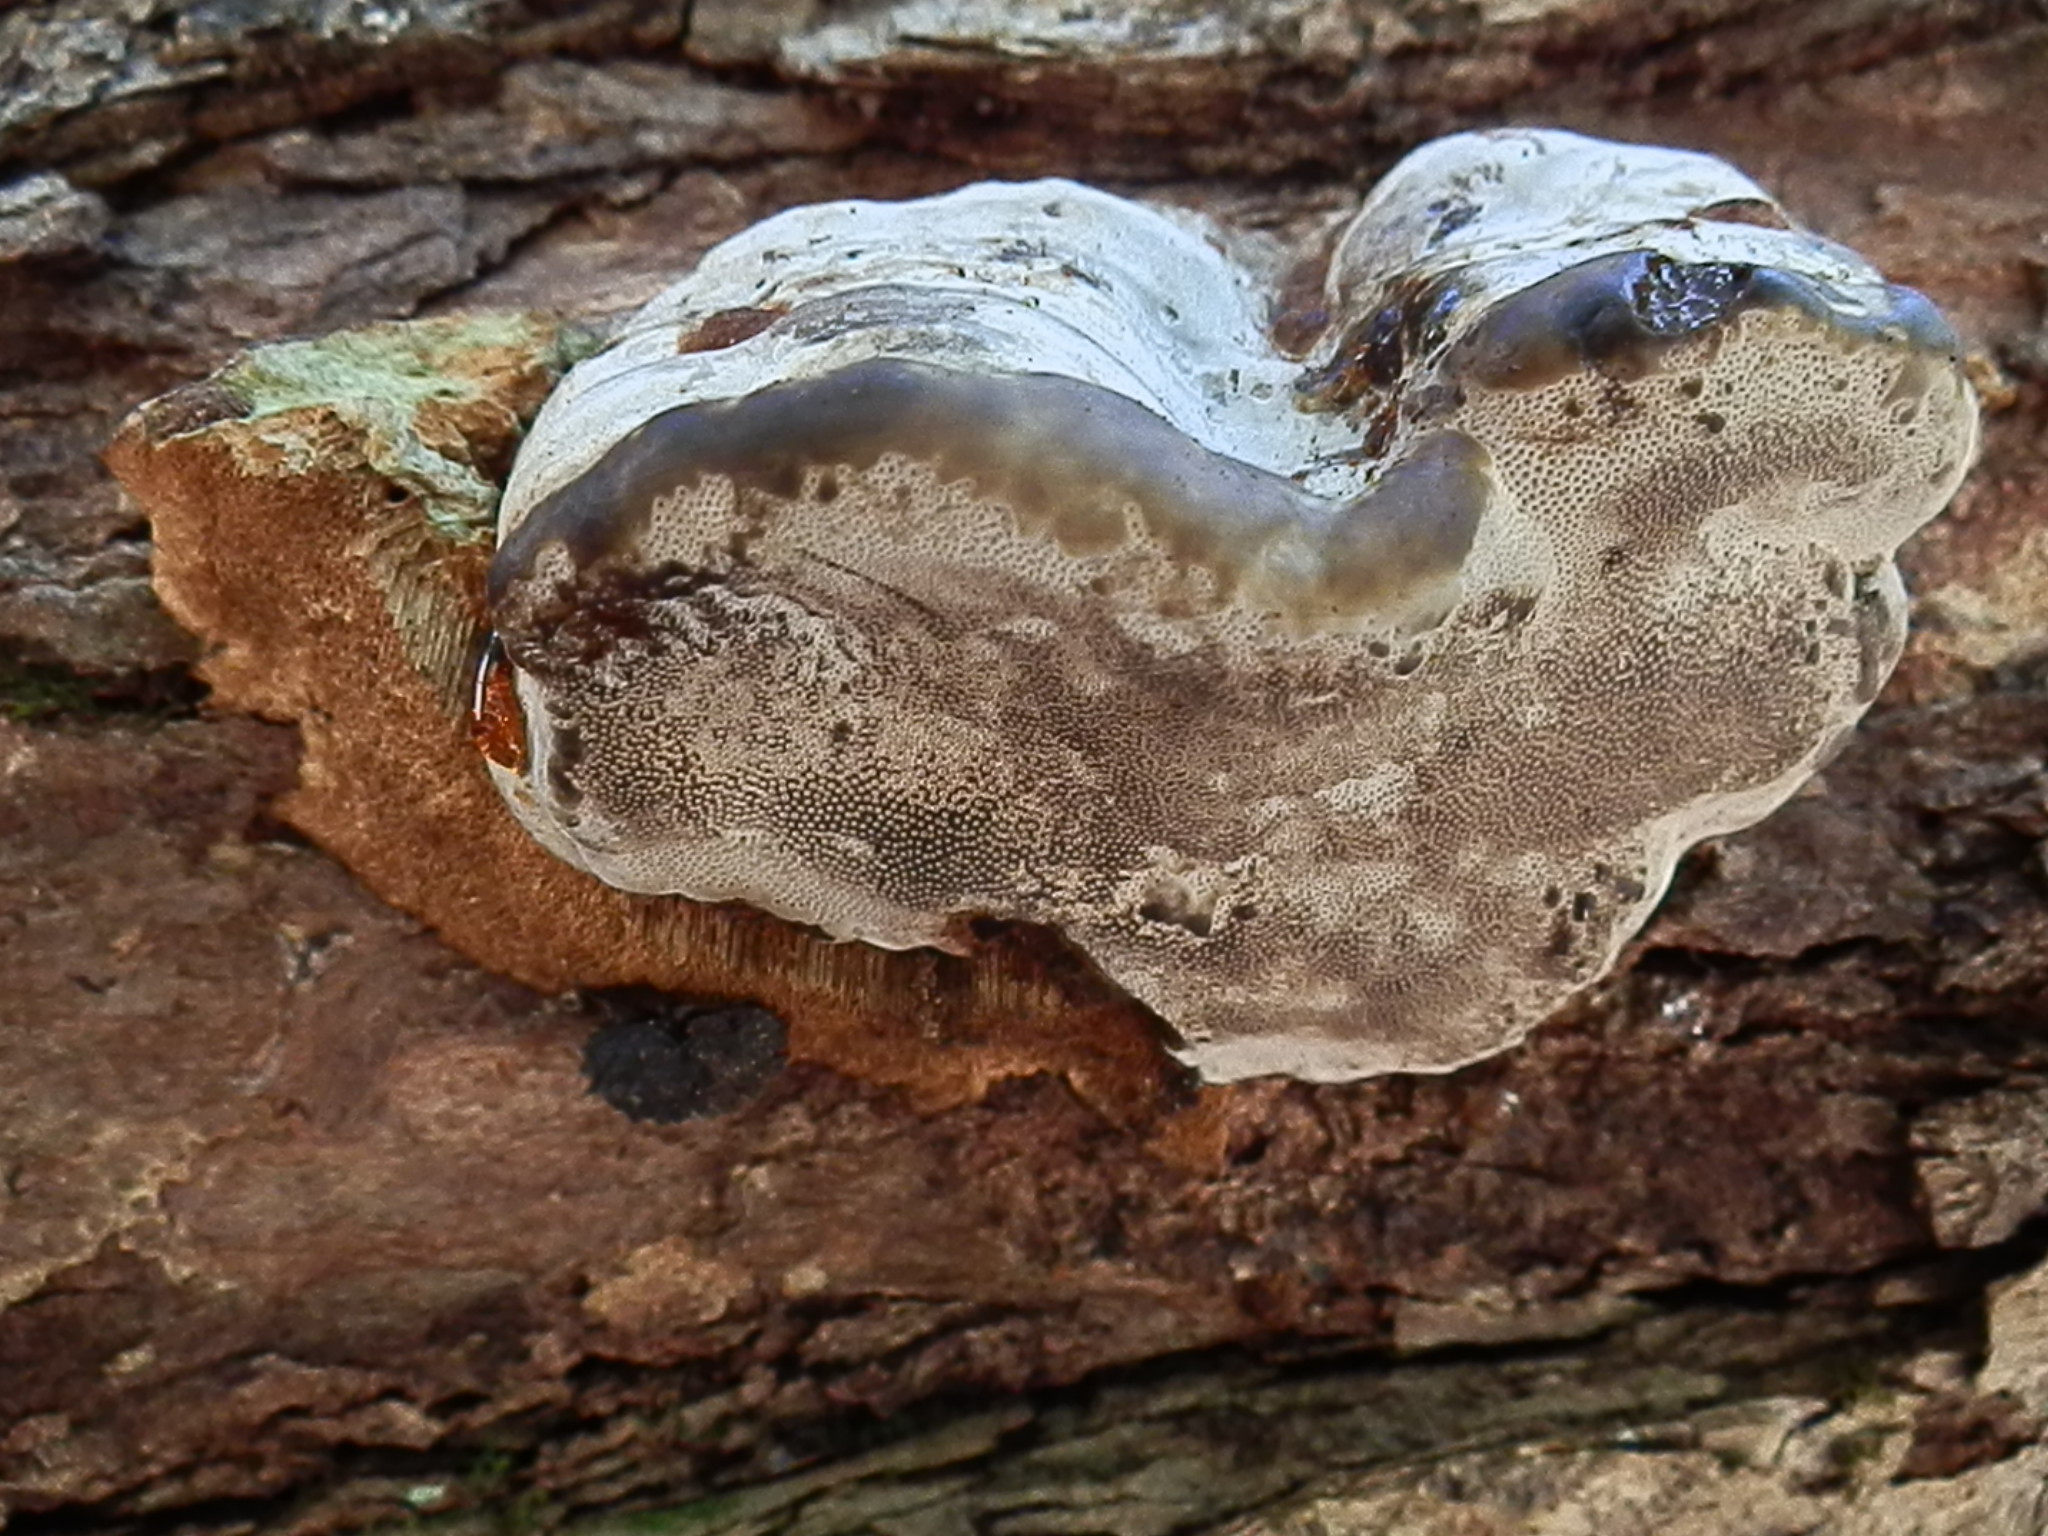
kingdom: Fungi
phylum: Basidiomycota
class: Agaricomycetes
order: Polyporales
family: Polyporaceae
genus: Fomes
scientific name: Fomes fomentarius
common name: Hoof fungus
